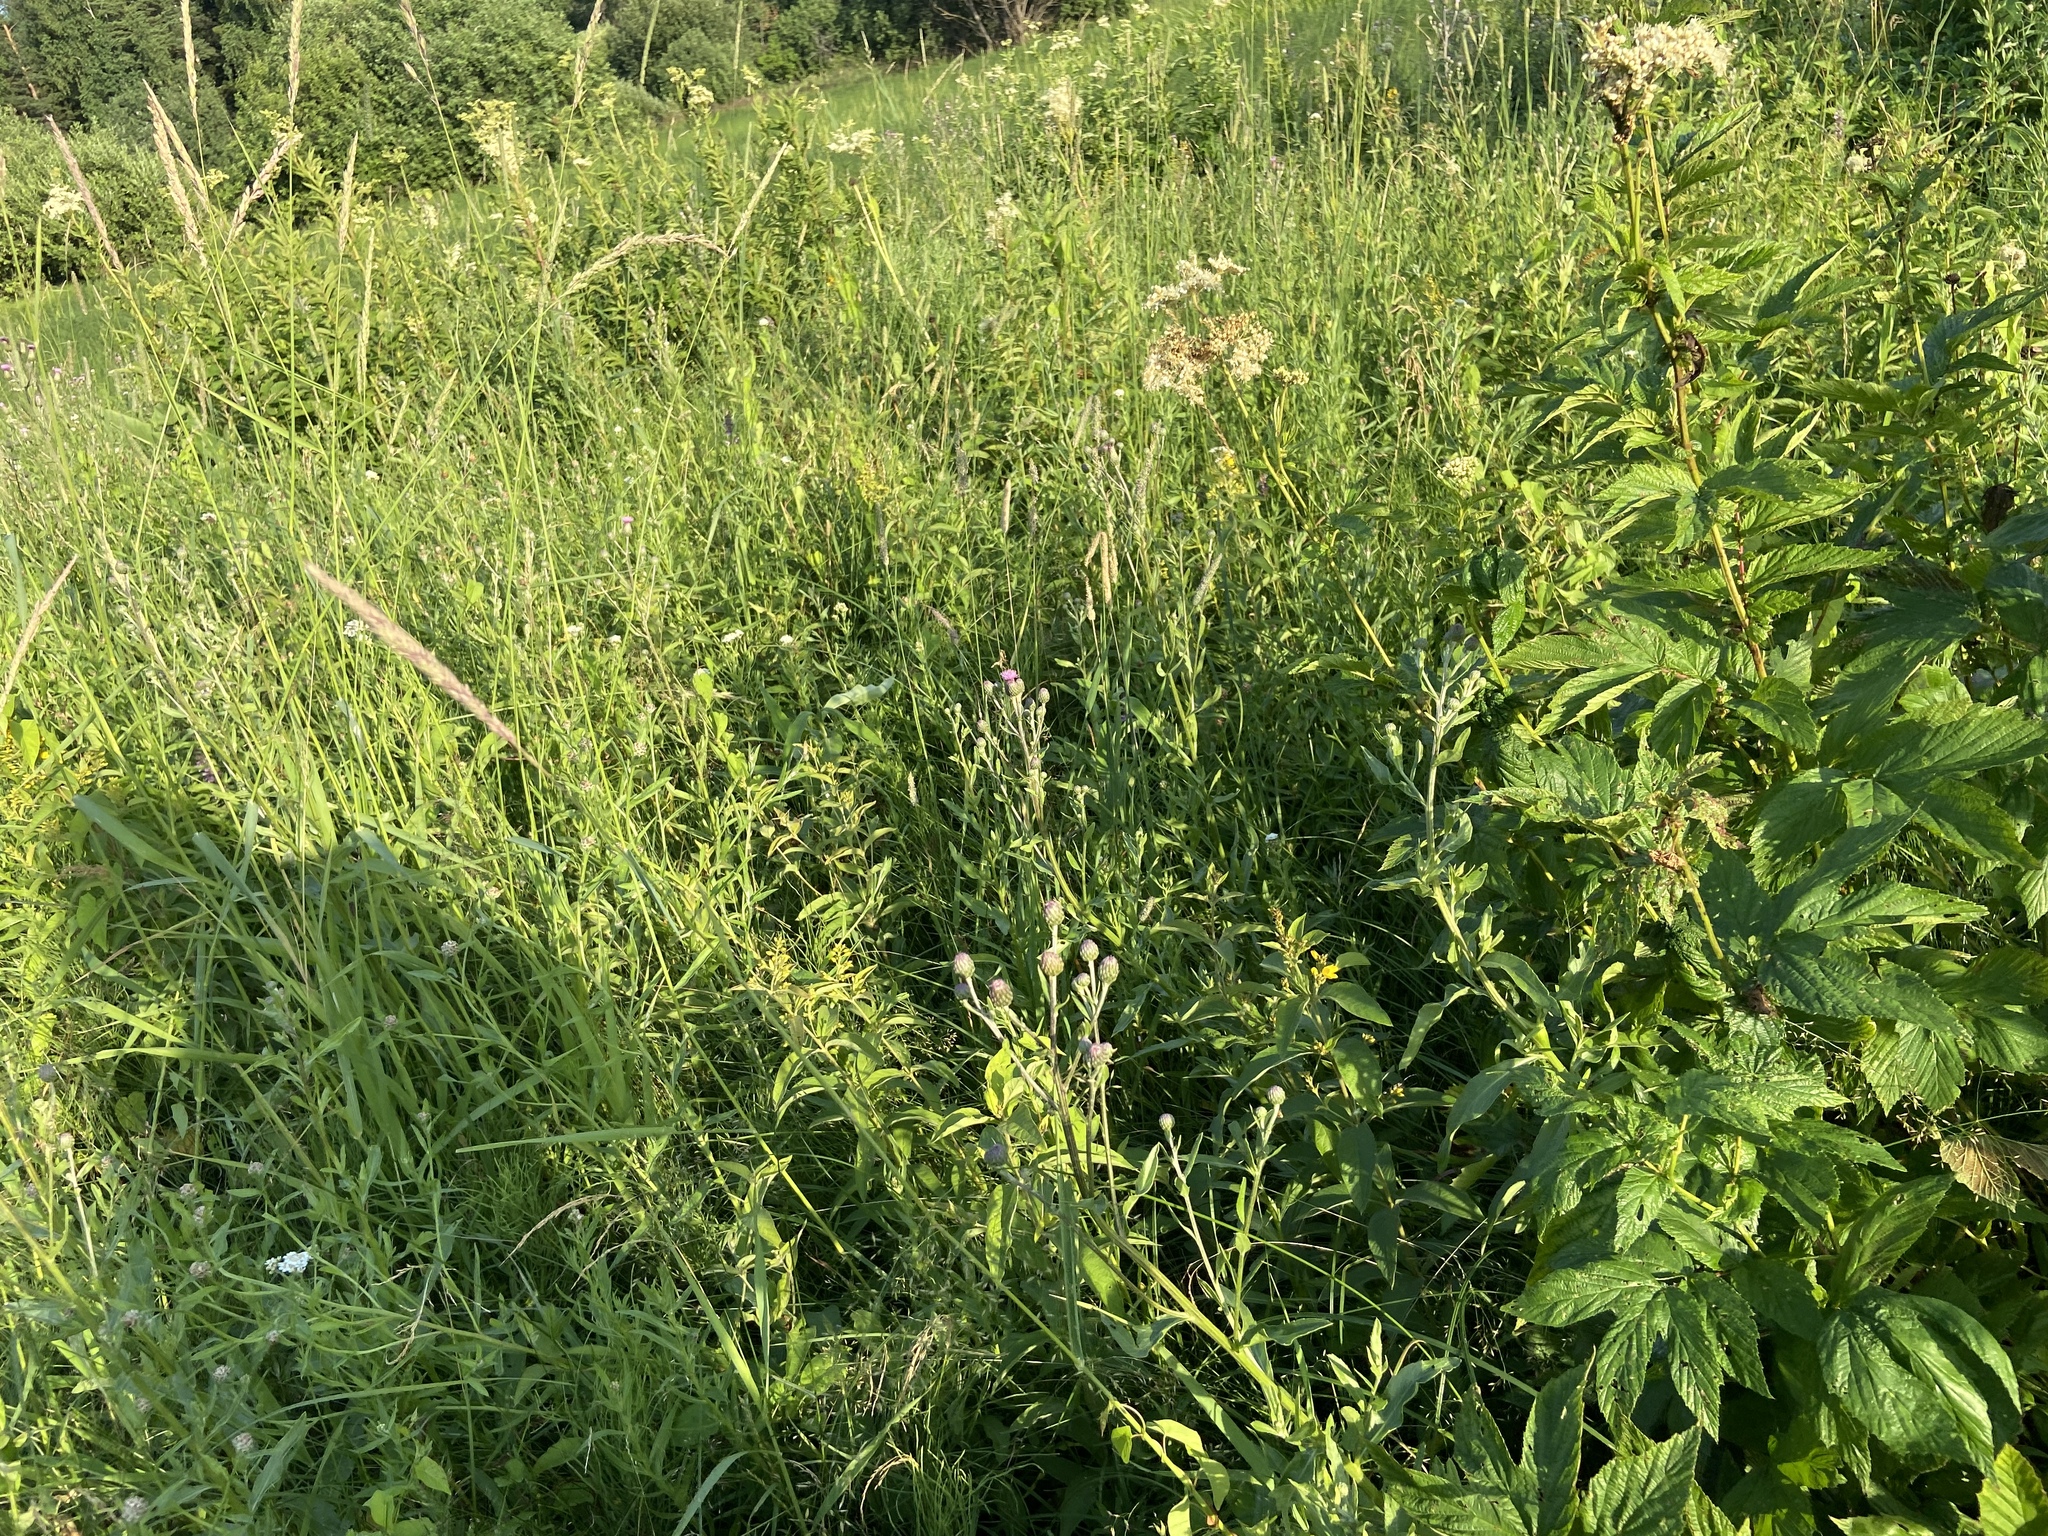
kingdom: Plantae
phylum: Tracheophyta
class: Magnoliopsida
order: Rosales
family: Rosaceae
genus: Filipendula
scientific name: Filipendula ulmaria
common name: Meadowsweet
